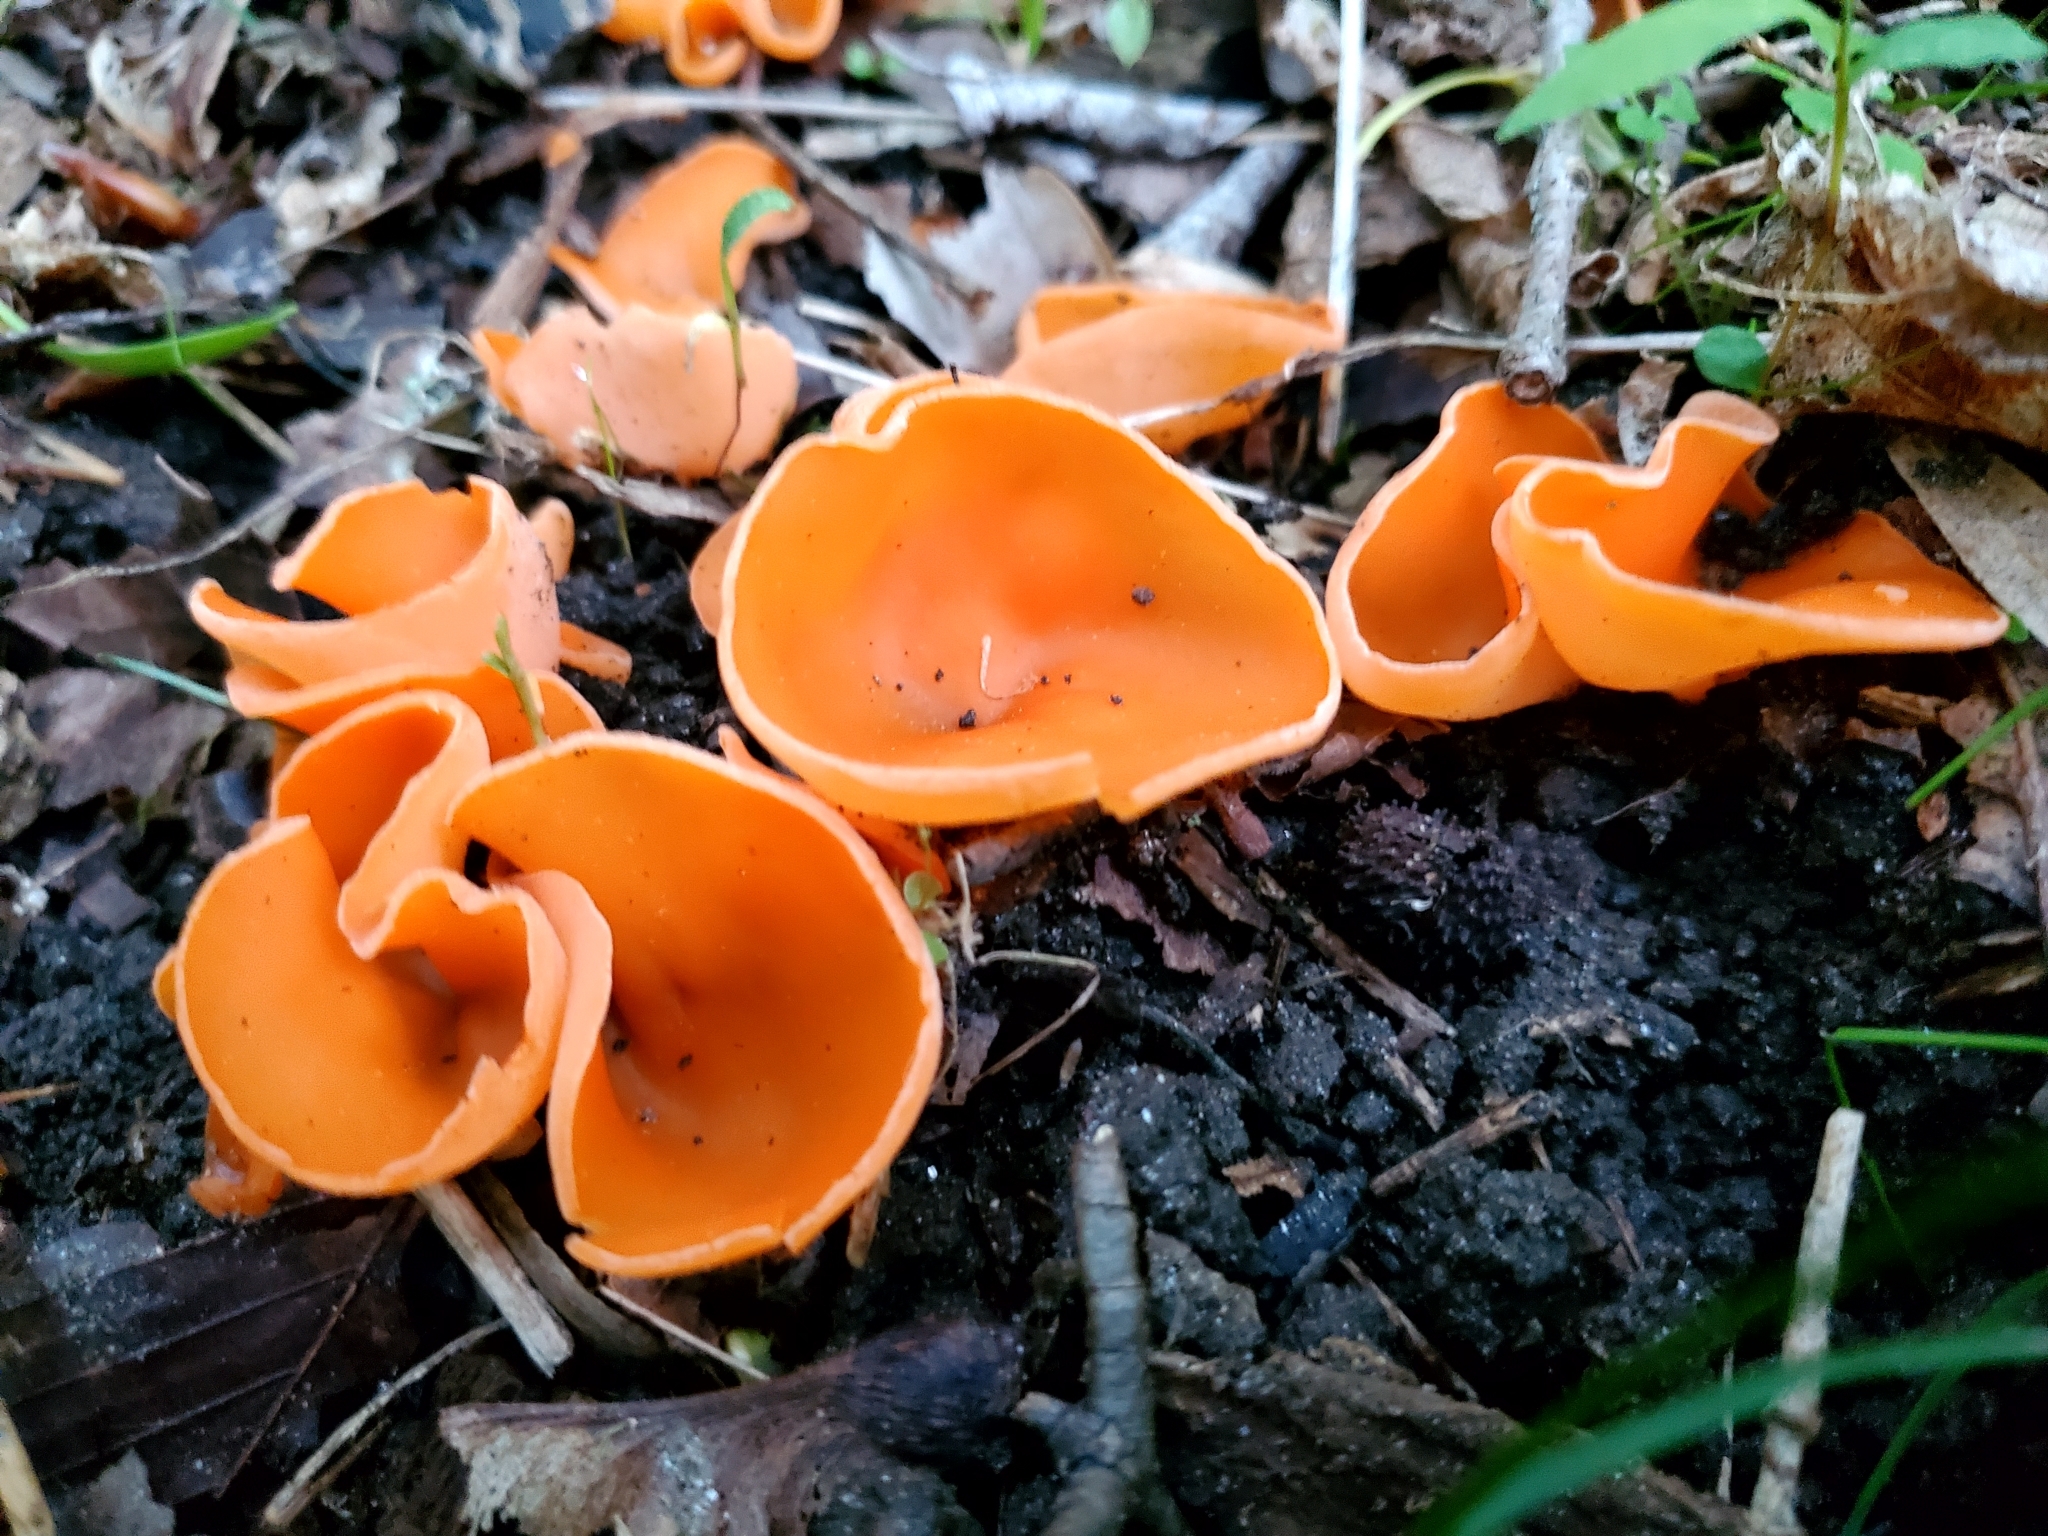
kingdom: Fungi
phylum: Ascomycota
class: Pezizomycetes
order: Pezizales
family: Pyronemataceae
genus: Aleuria
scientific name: Aleuria aurantia
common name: Orange peel fungus
